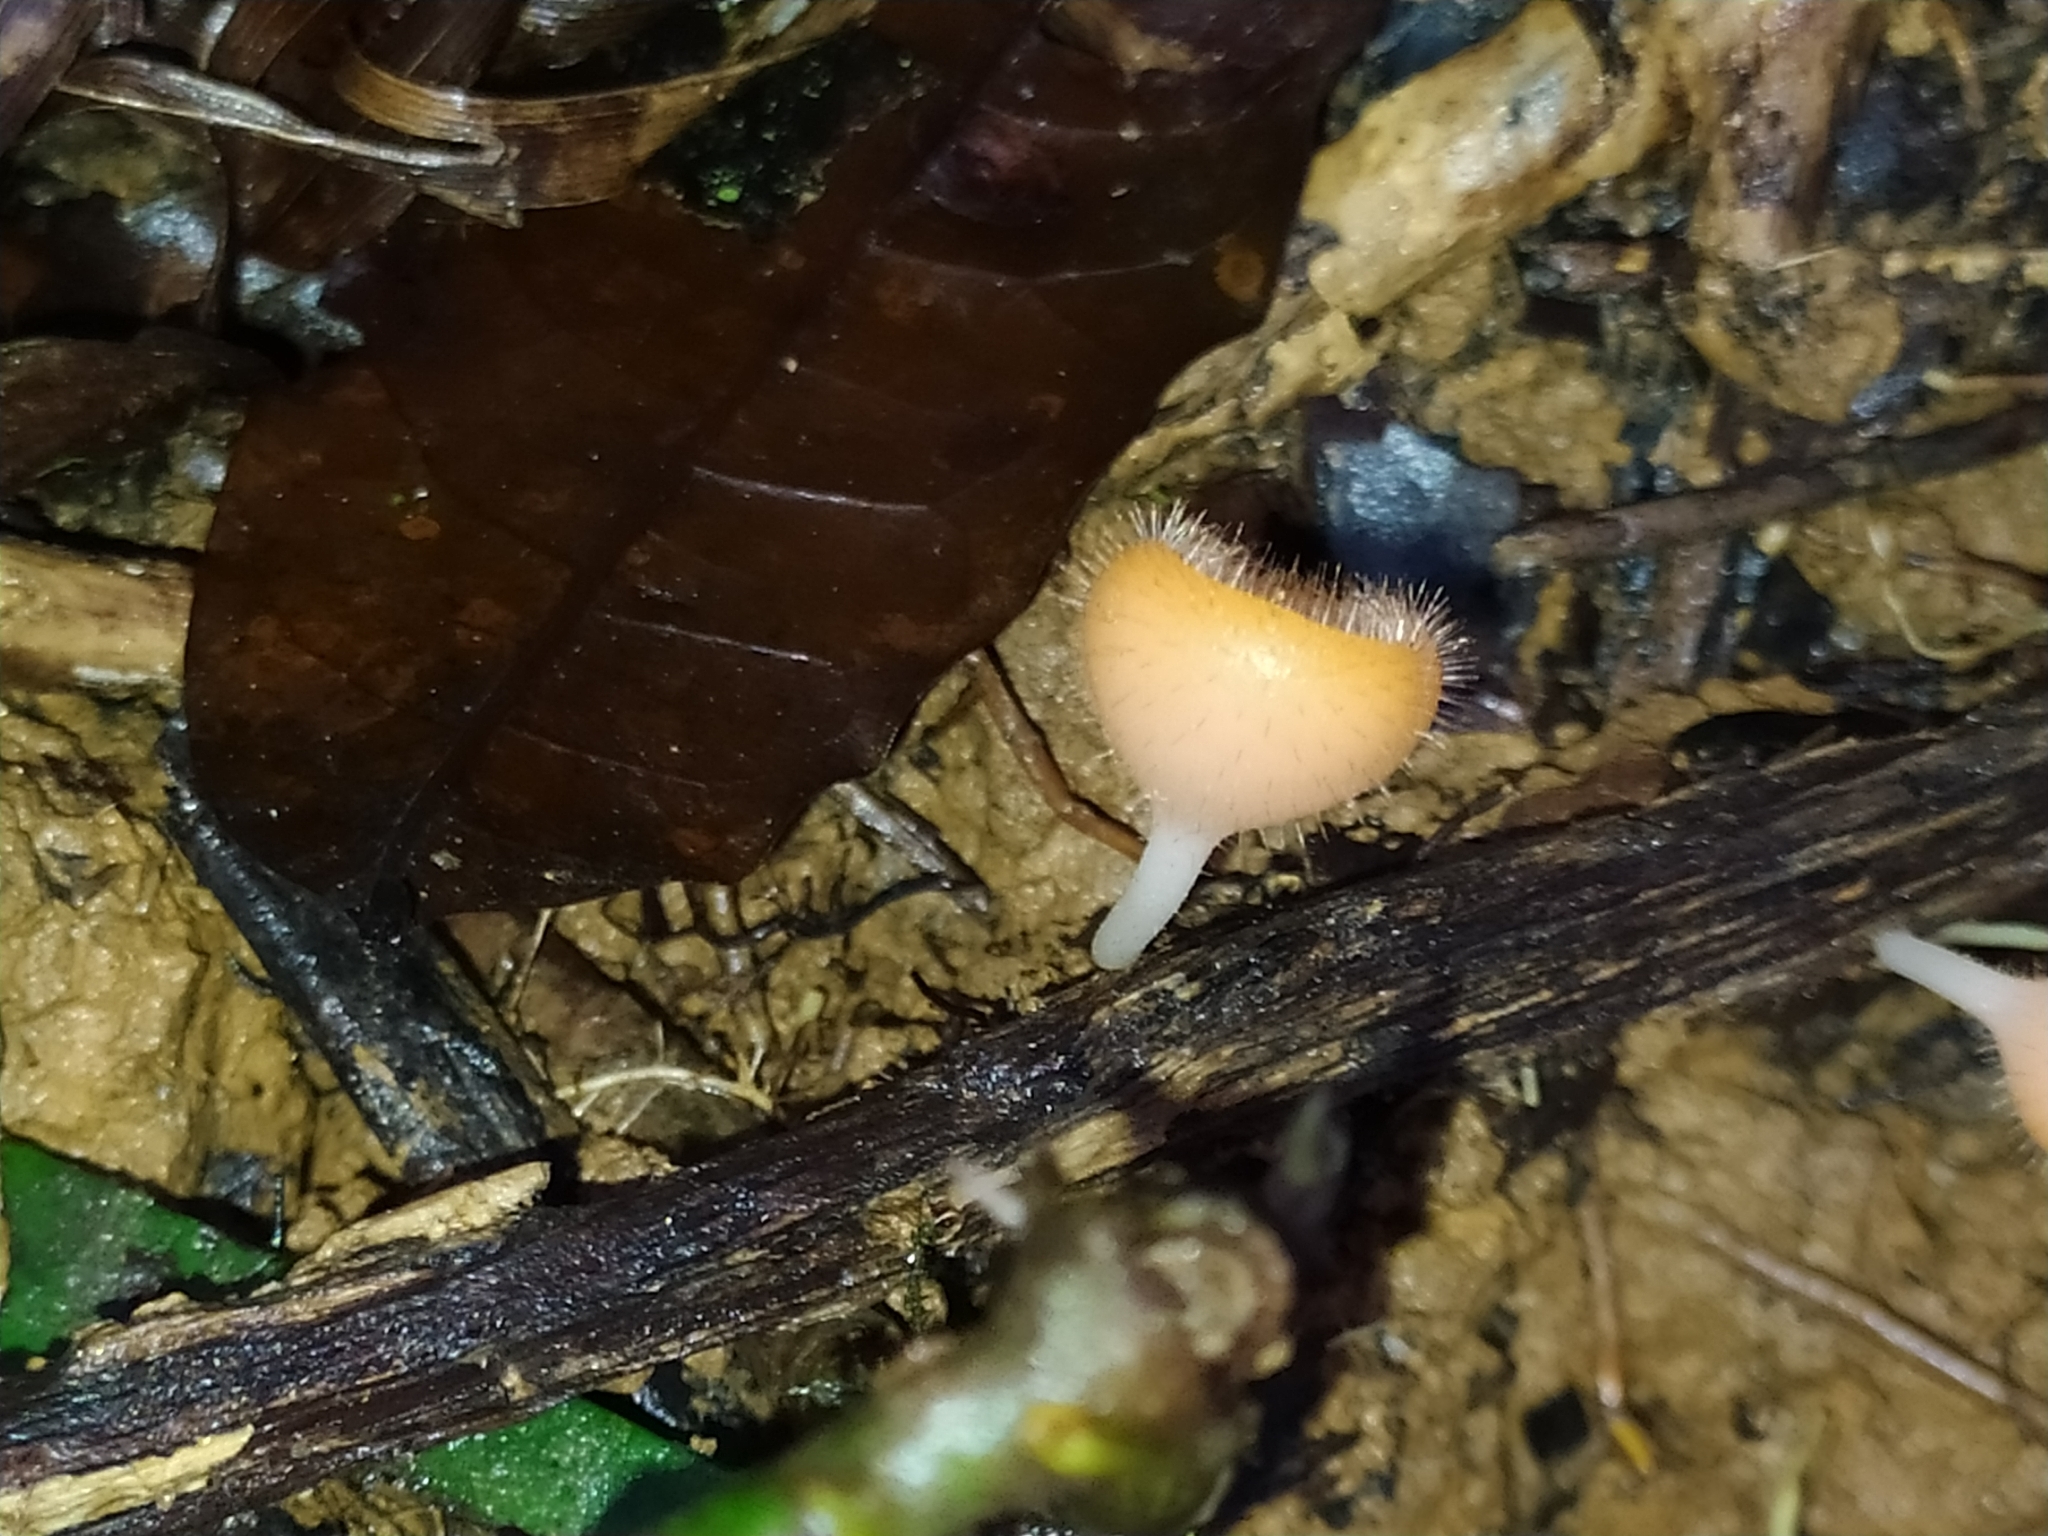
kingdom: Fungi
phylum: Ascomycota
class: Pezizomycetes
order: Pezizales
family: Sarcoscyphaceae
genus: Cookeina
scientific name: Cookeina tricholoma
